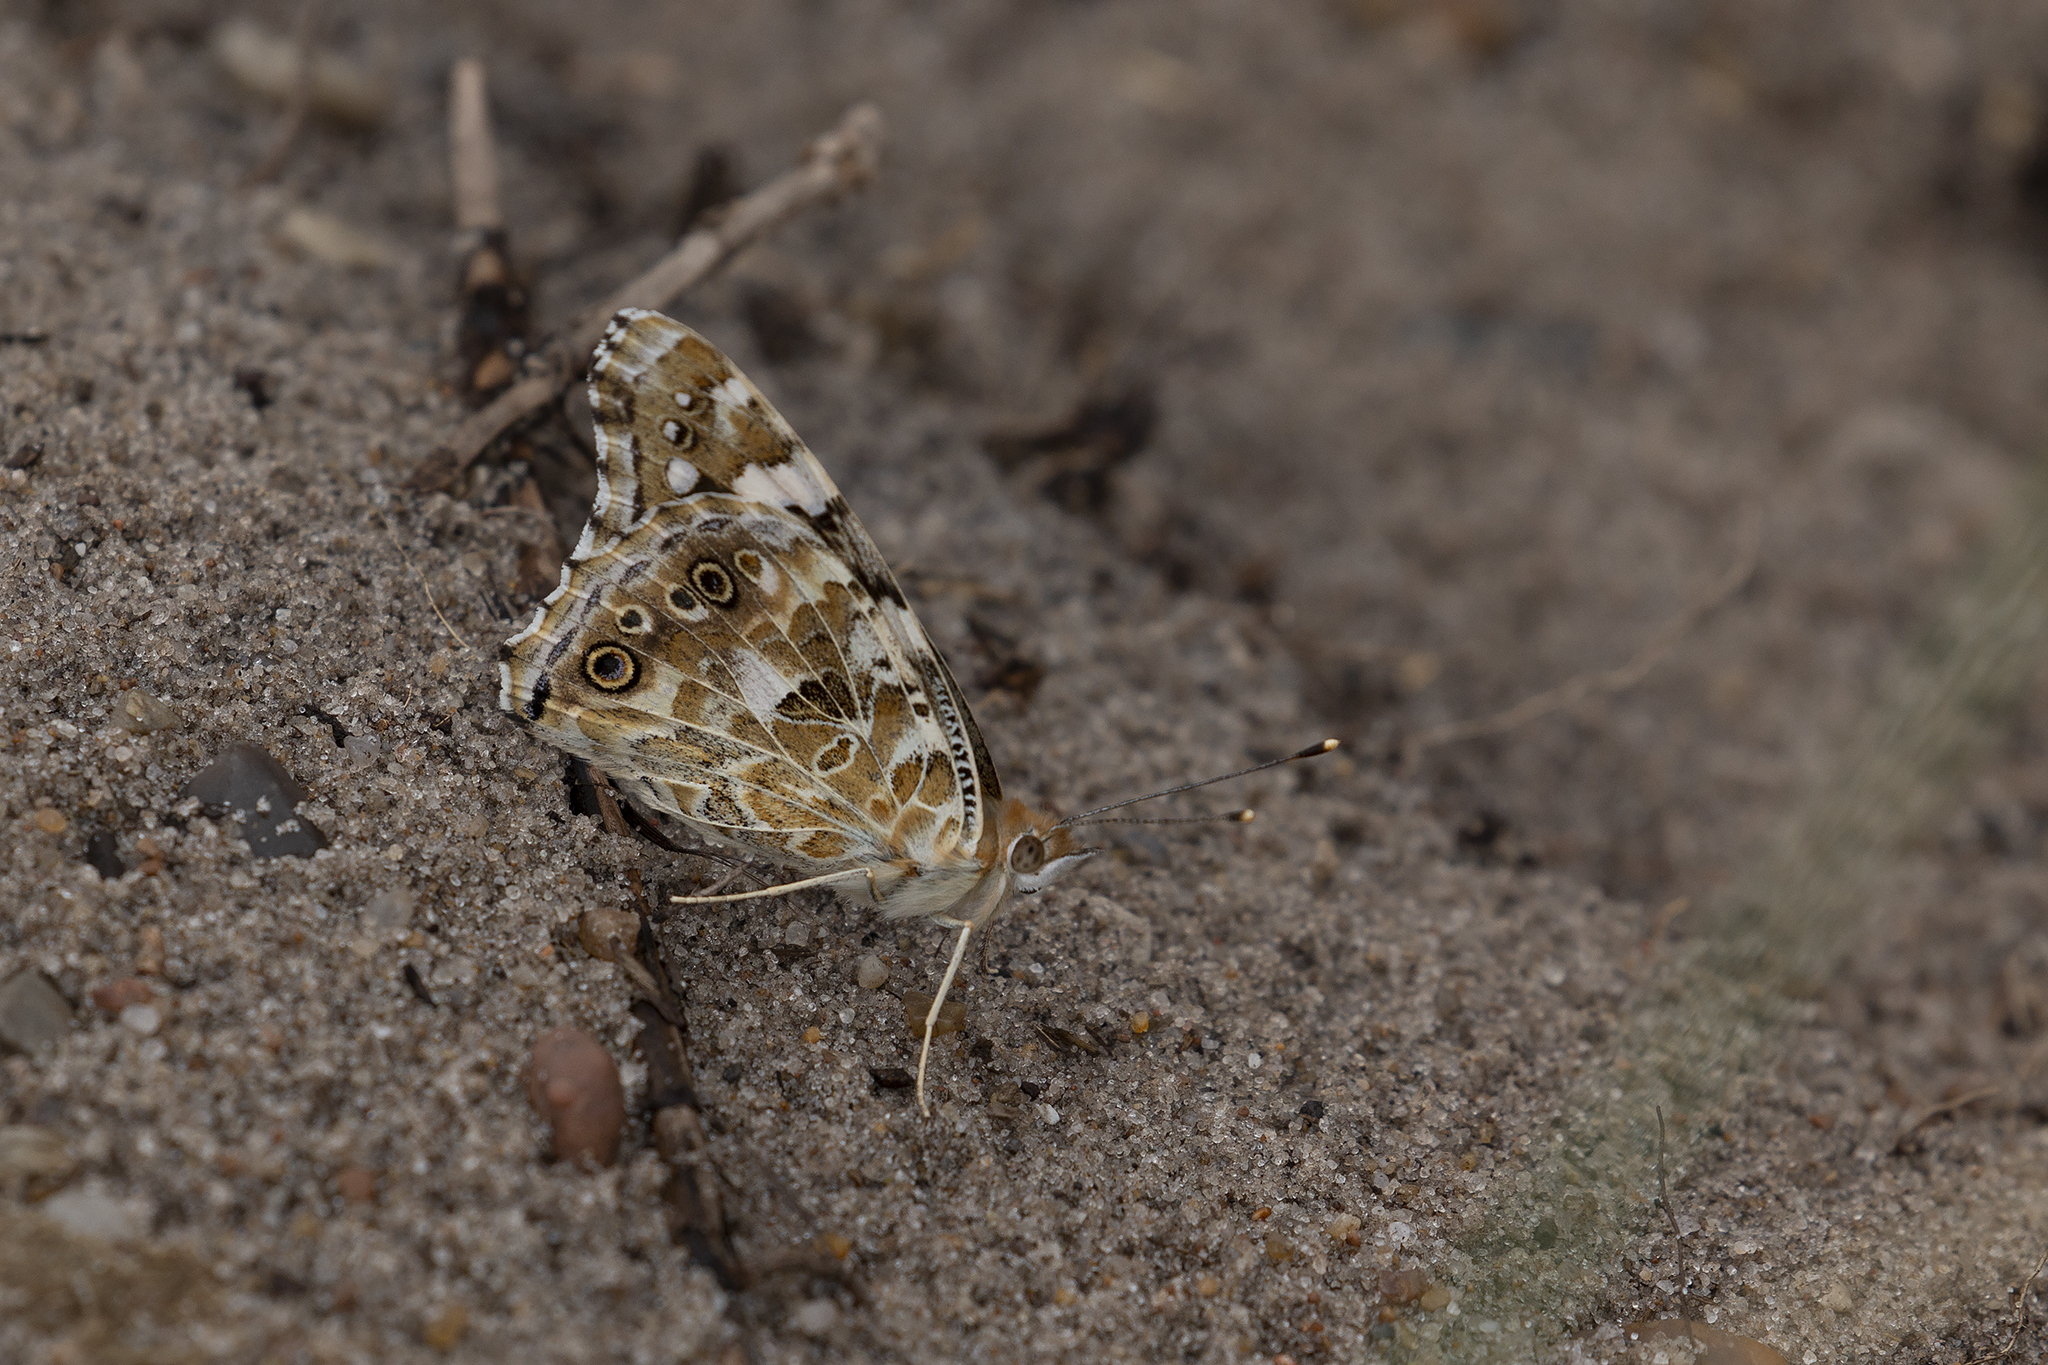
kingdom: Animalia
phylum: Arthropoda
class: Insecta
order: Lepidoptera
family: Nymphalidae
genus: Vanessa
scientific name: Vanessa cardui
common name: Painted lady
